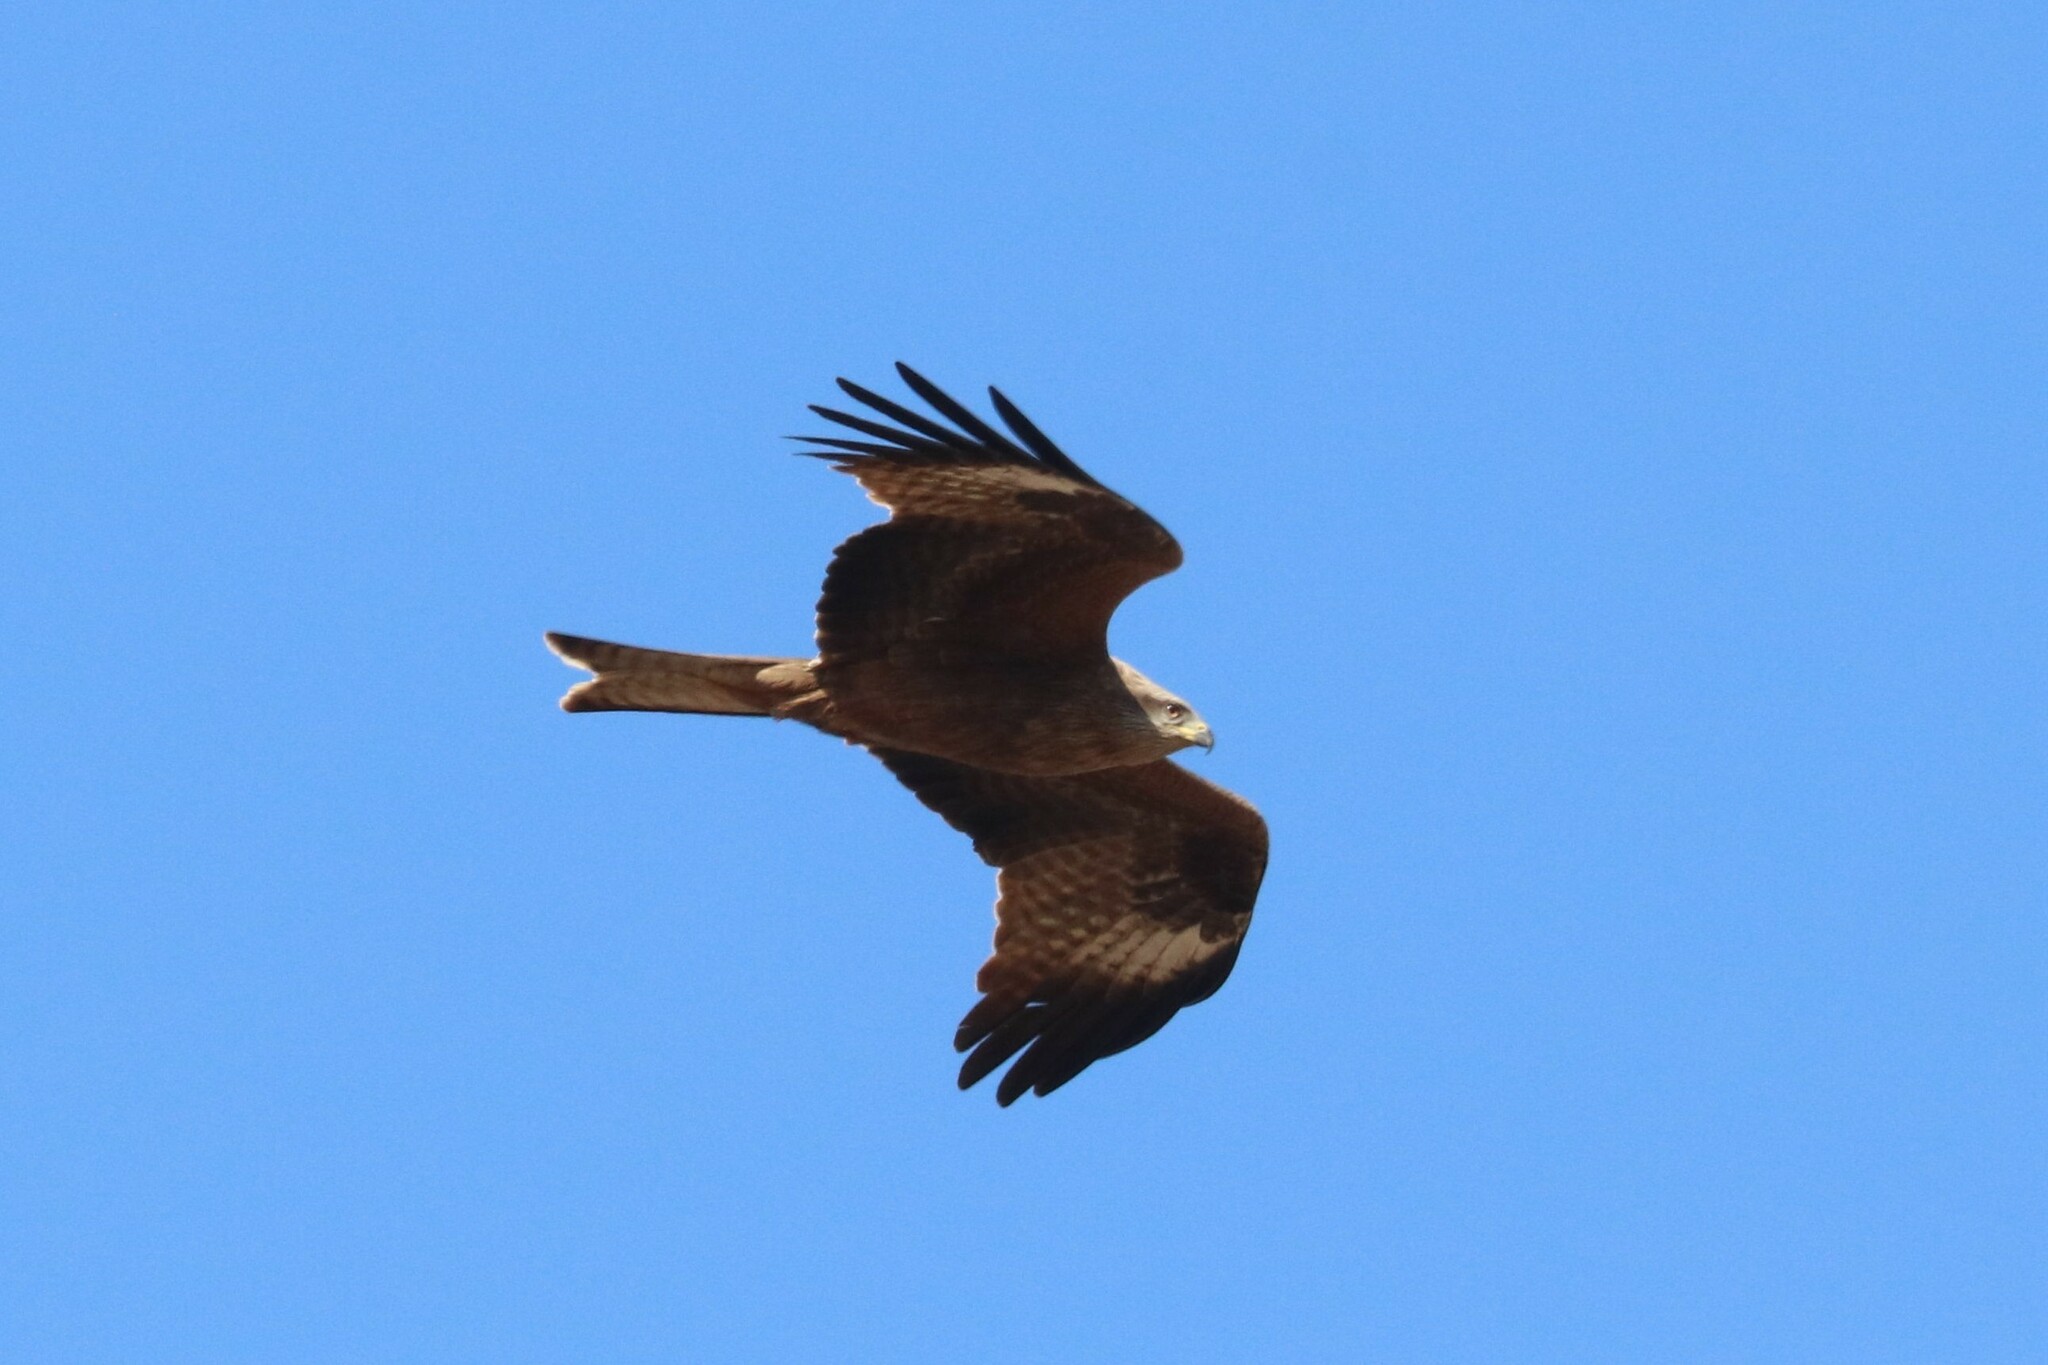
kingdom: Animalia
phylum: Chordata
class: Aves
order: Accipitriformes
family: Accipitridae
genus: Milvus
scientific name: Milvus migrans
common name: Black kite
